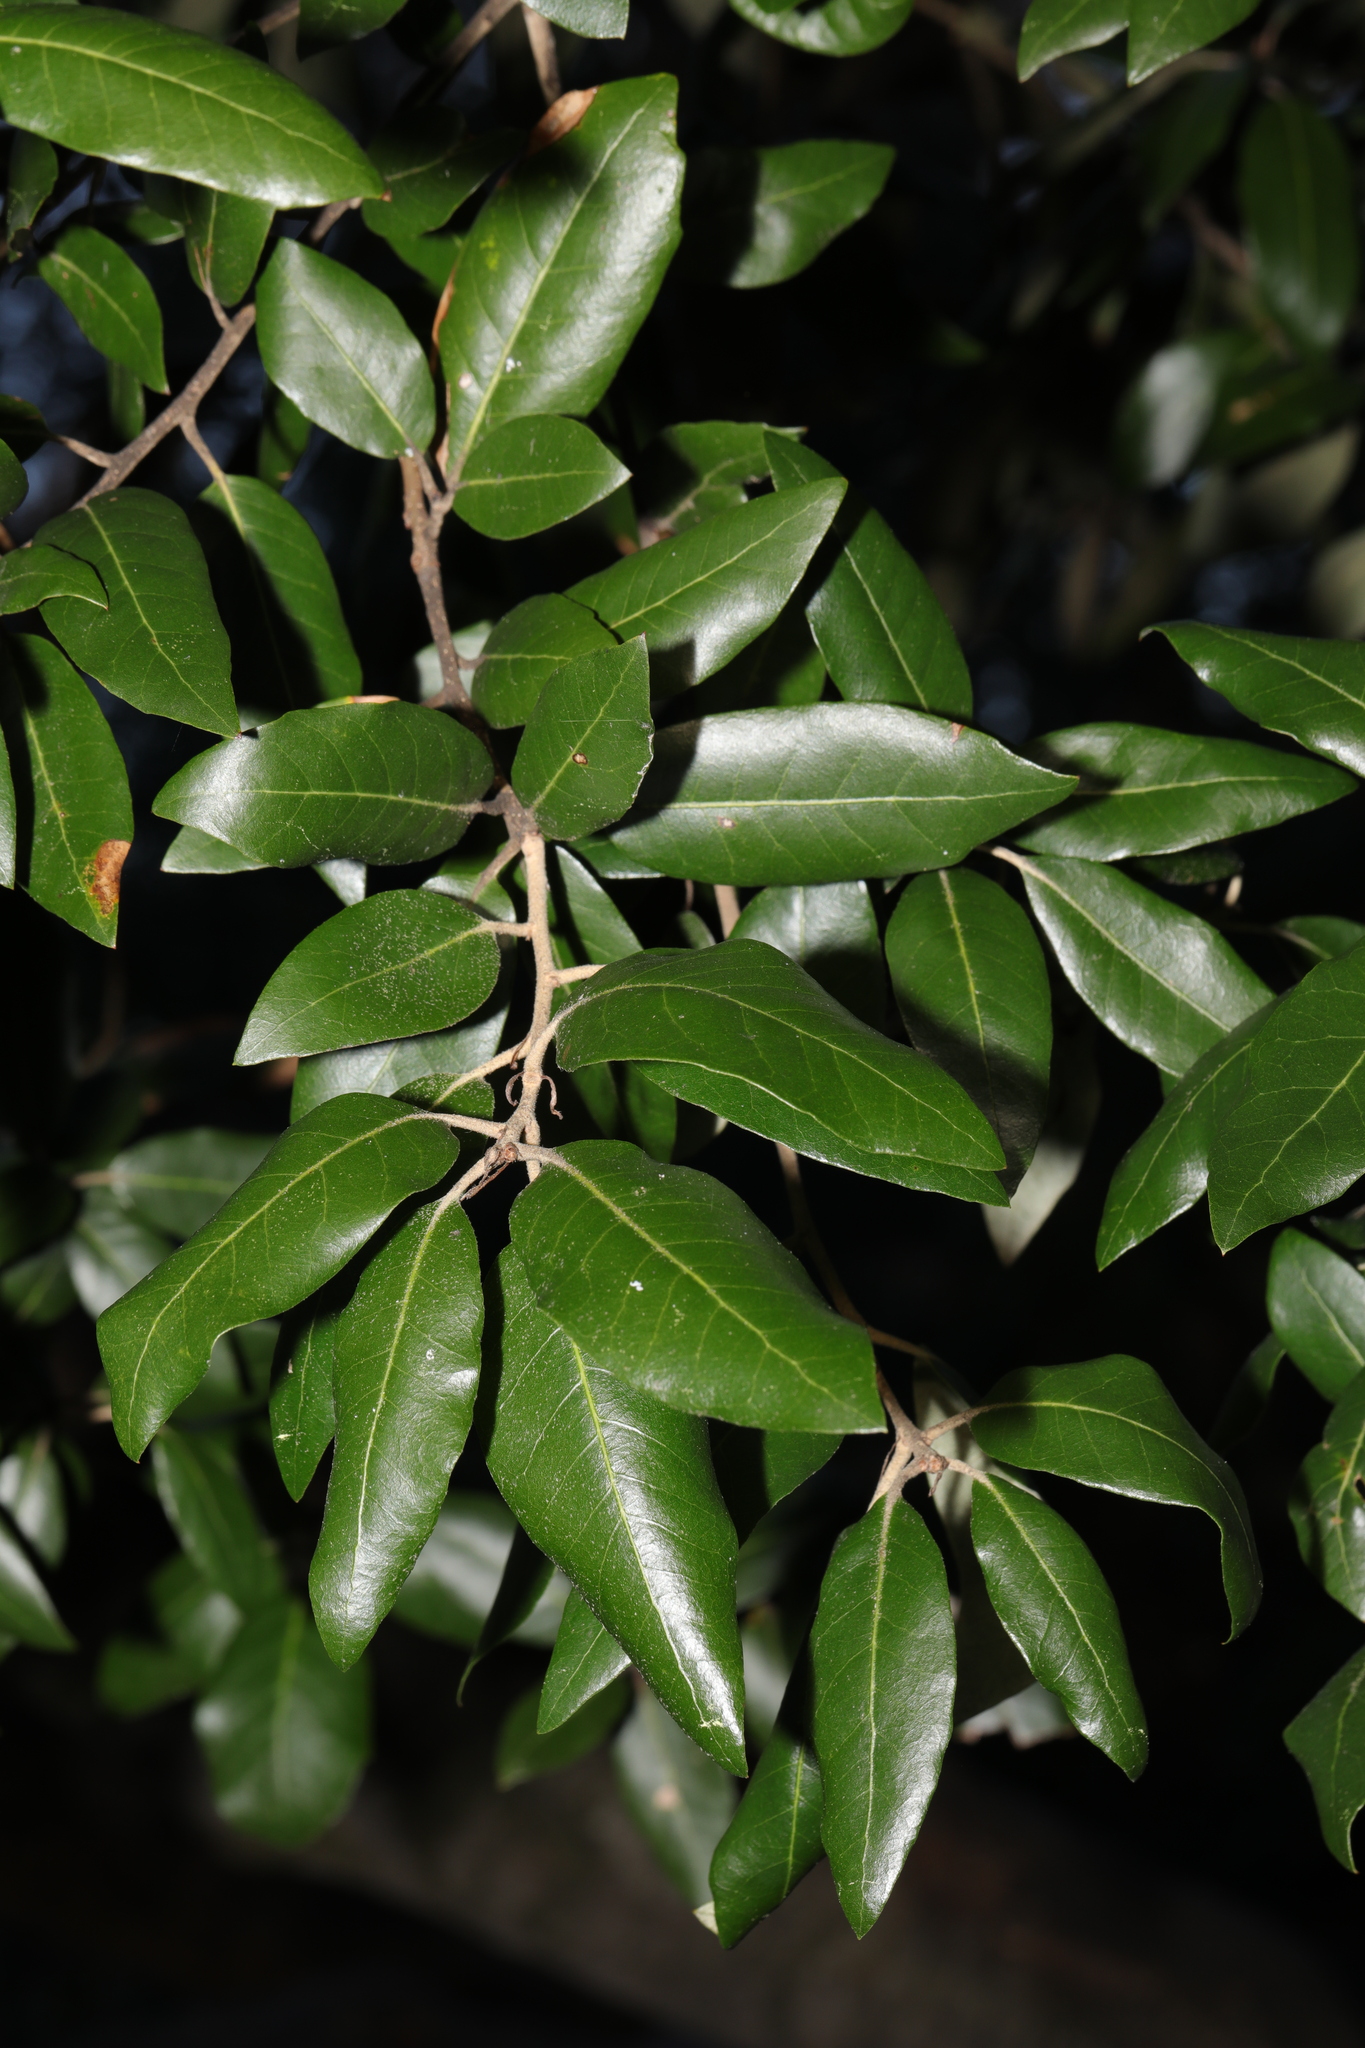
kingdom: Plantae
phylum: Tracheophyta
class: Magnoliopsida
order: Fagales
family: Fagaceae
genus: Quercus
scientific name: Quercus ilex
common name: Evergreen oak
